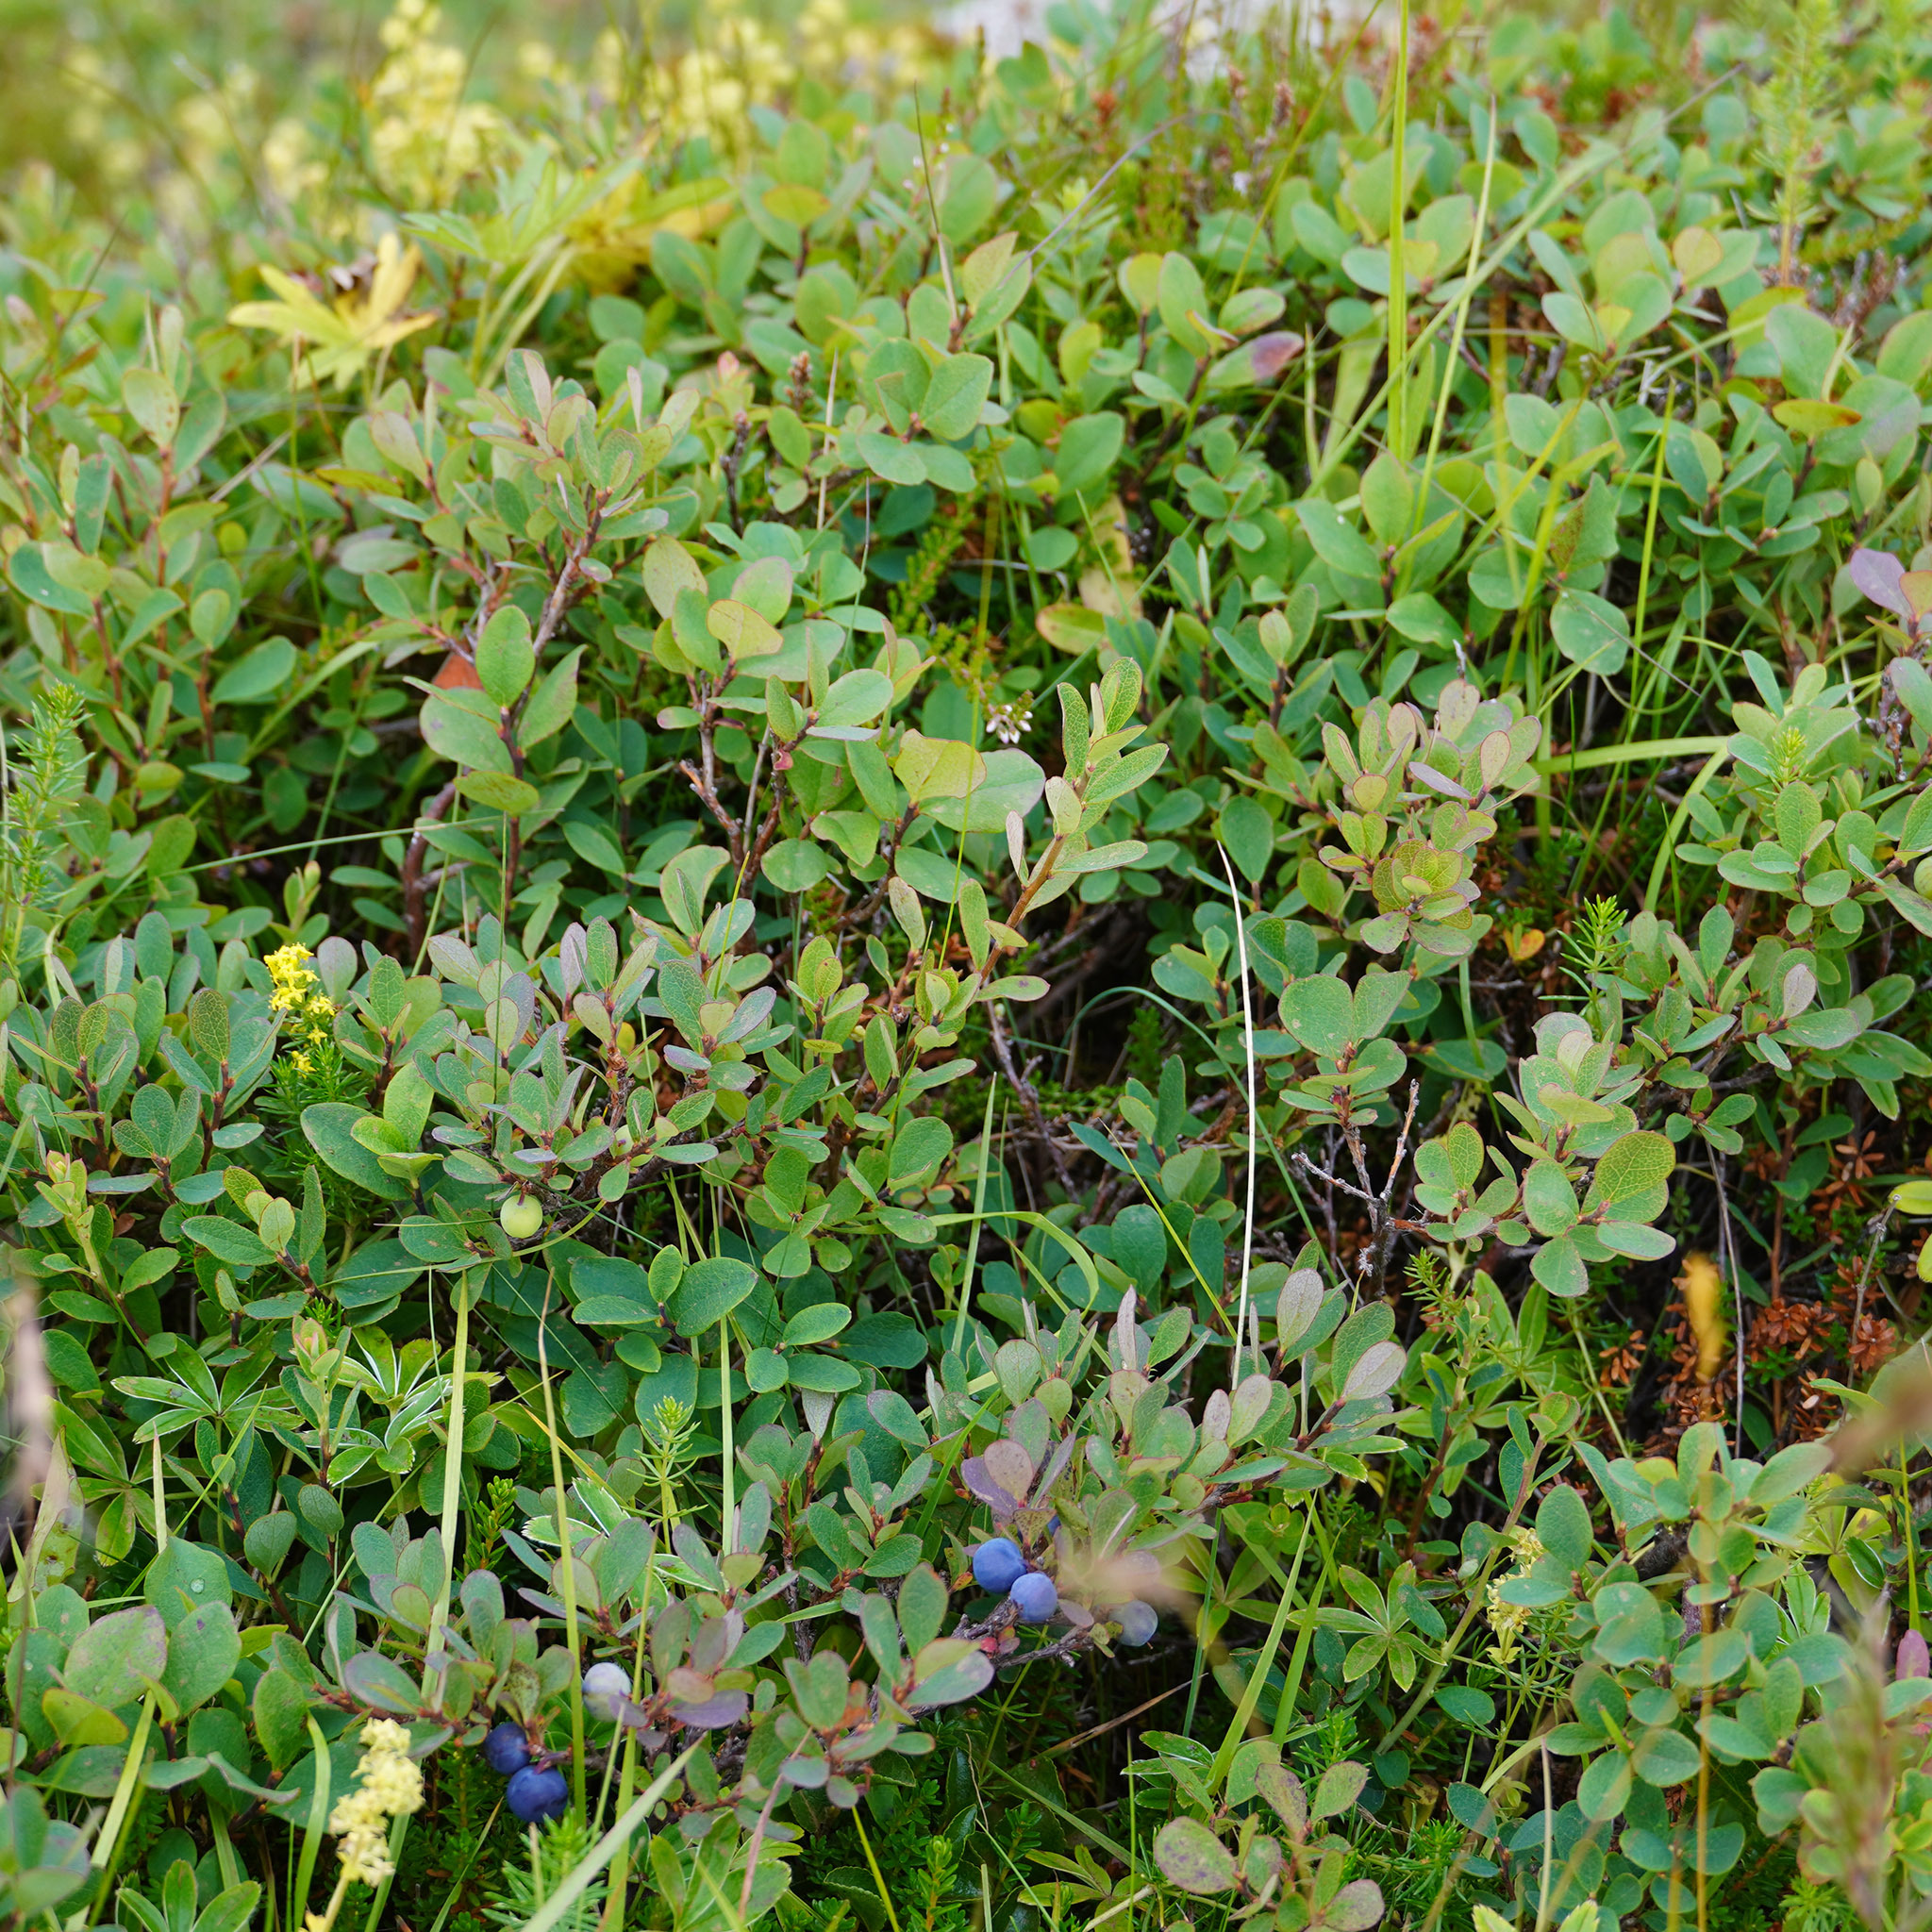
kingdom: Plantae
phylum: Tracheophyta
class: Magnoliopsida
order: Ericales
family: Ericaceae
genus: Vaccinium
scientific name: Vaccinium uliginosum
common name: Bog bilberry
